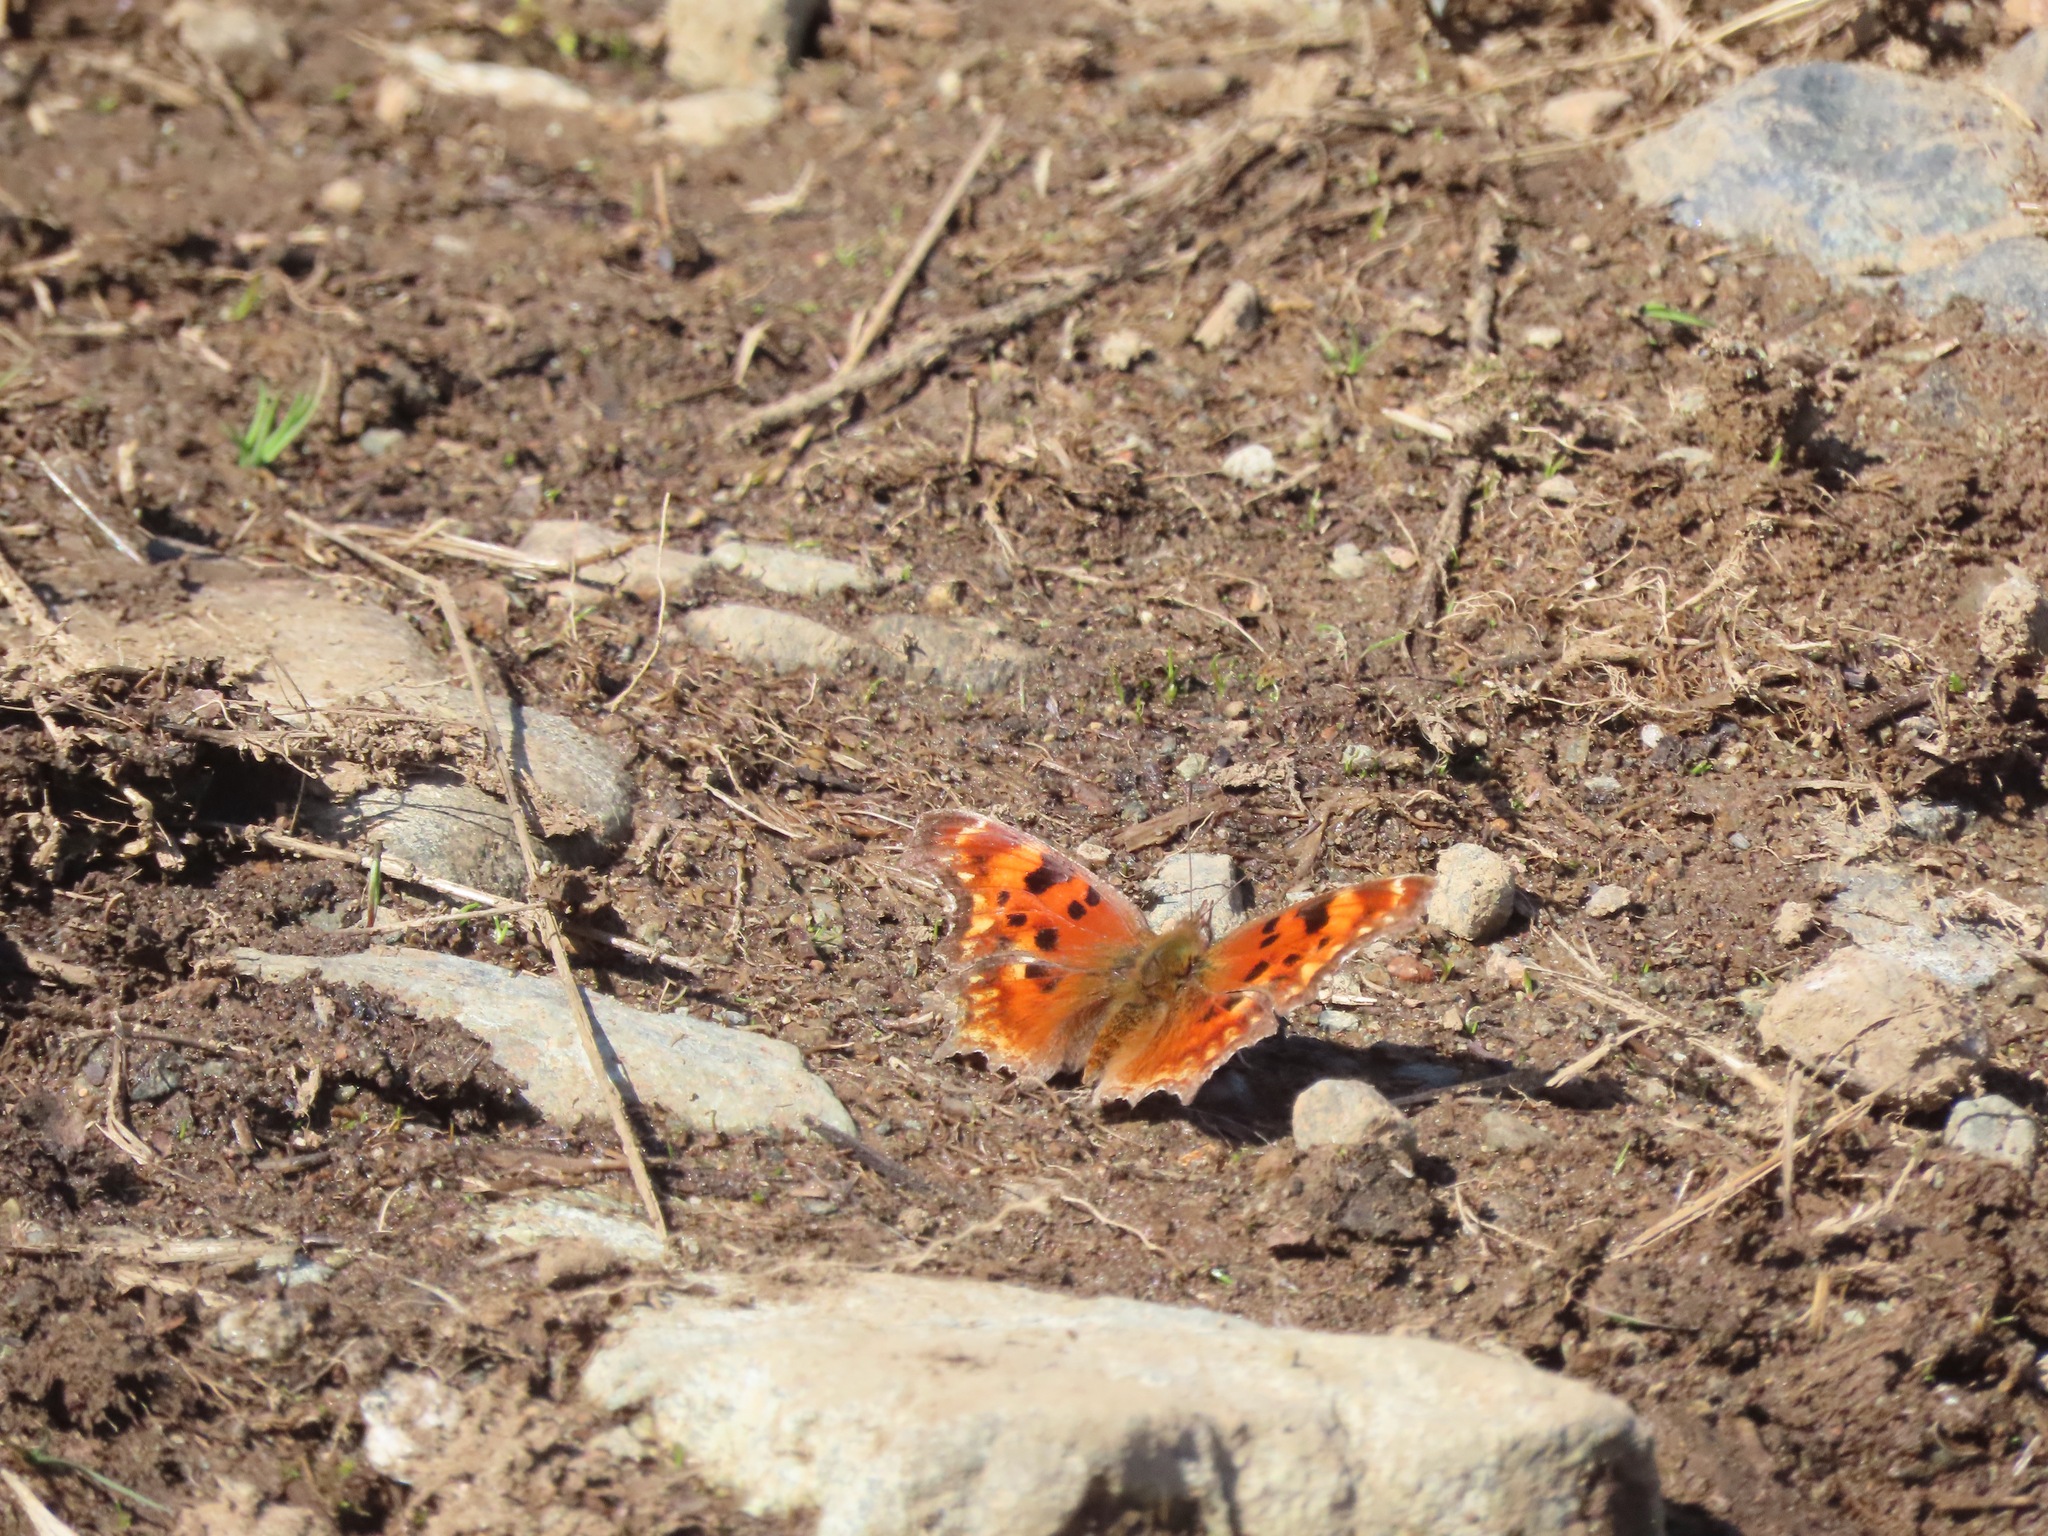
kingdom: Animalia
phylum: Arthropoda
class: Insecta
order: Lepidoptera
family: Nymphalidae
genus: Polygonia
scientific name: Polygonia gracilis
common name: Hoary comma
